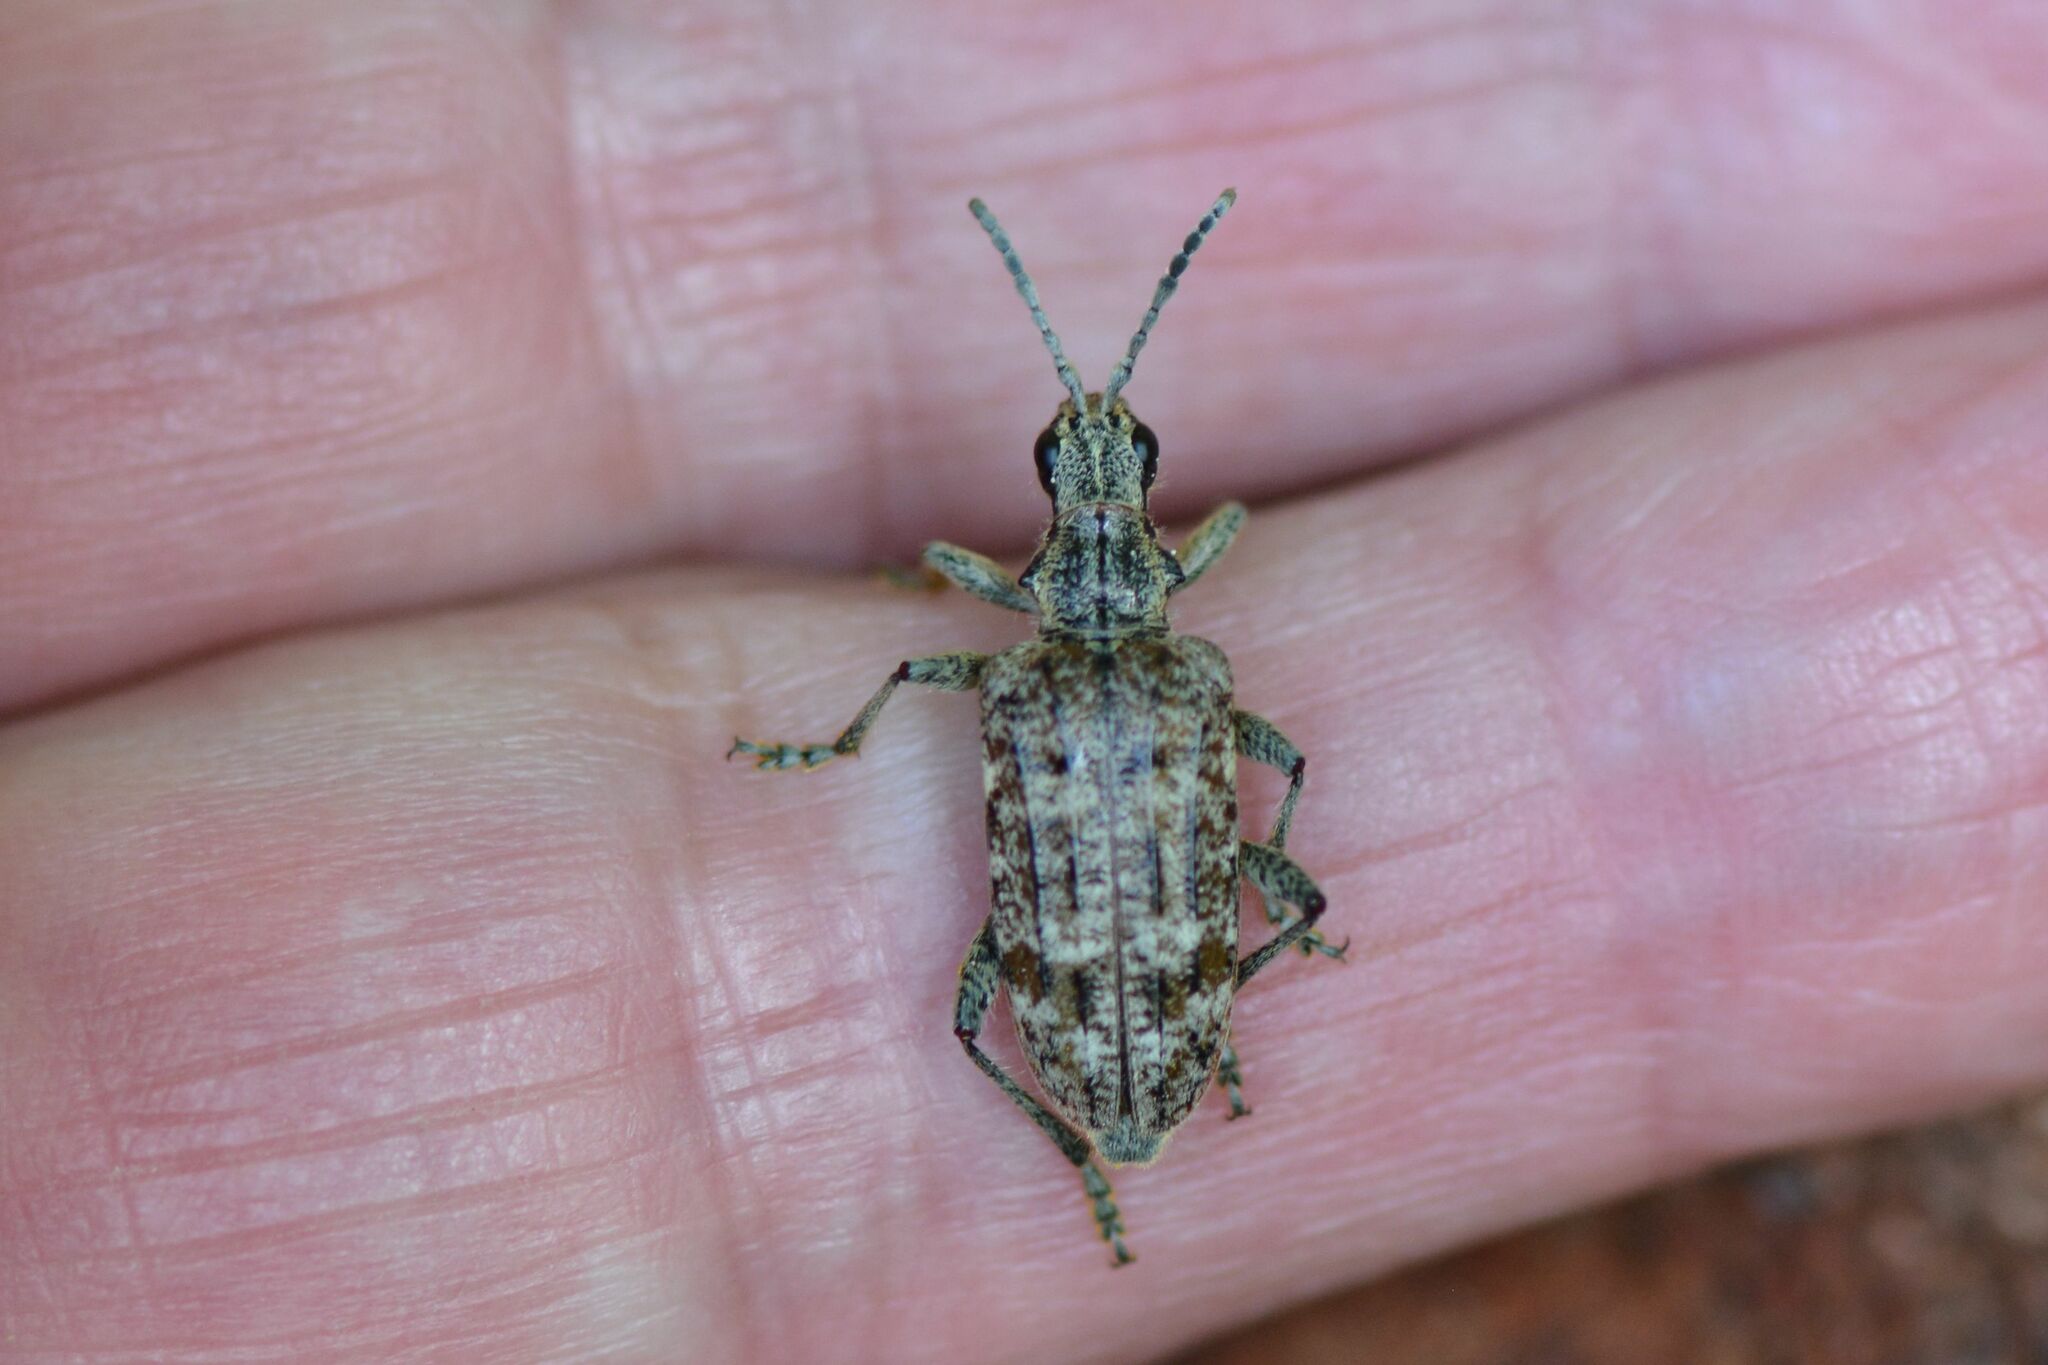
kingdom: Animalia
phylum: Arthropoda
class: Insecta
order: Coleoptera
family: Cerambycidae
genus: Rhagium
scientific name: Rhagium inquisitor
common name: Ribbed pine borer
